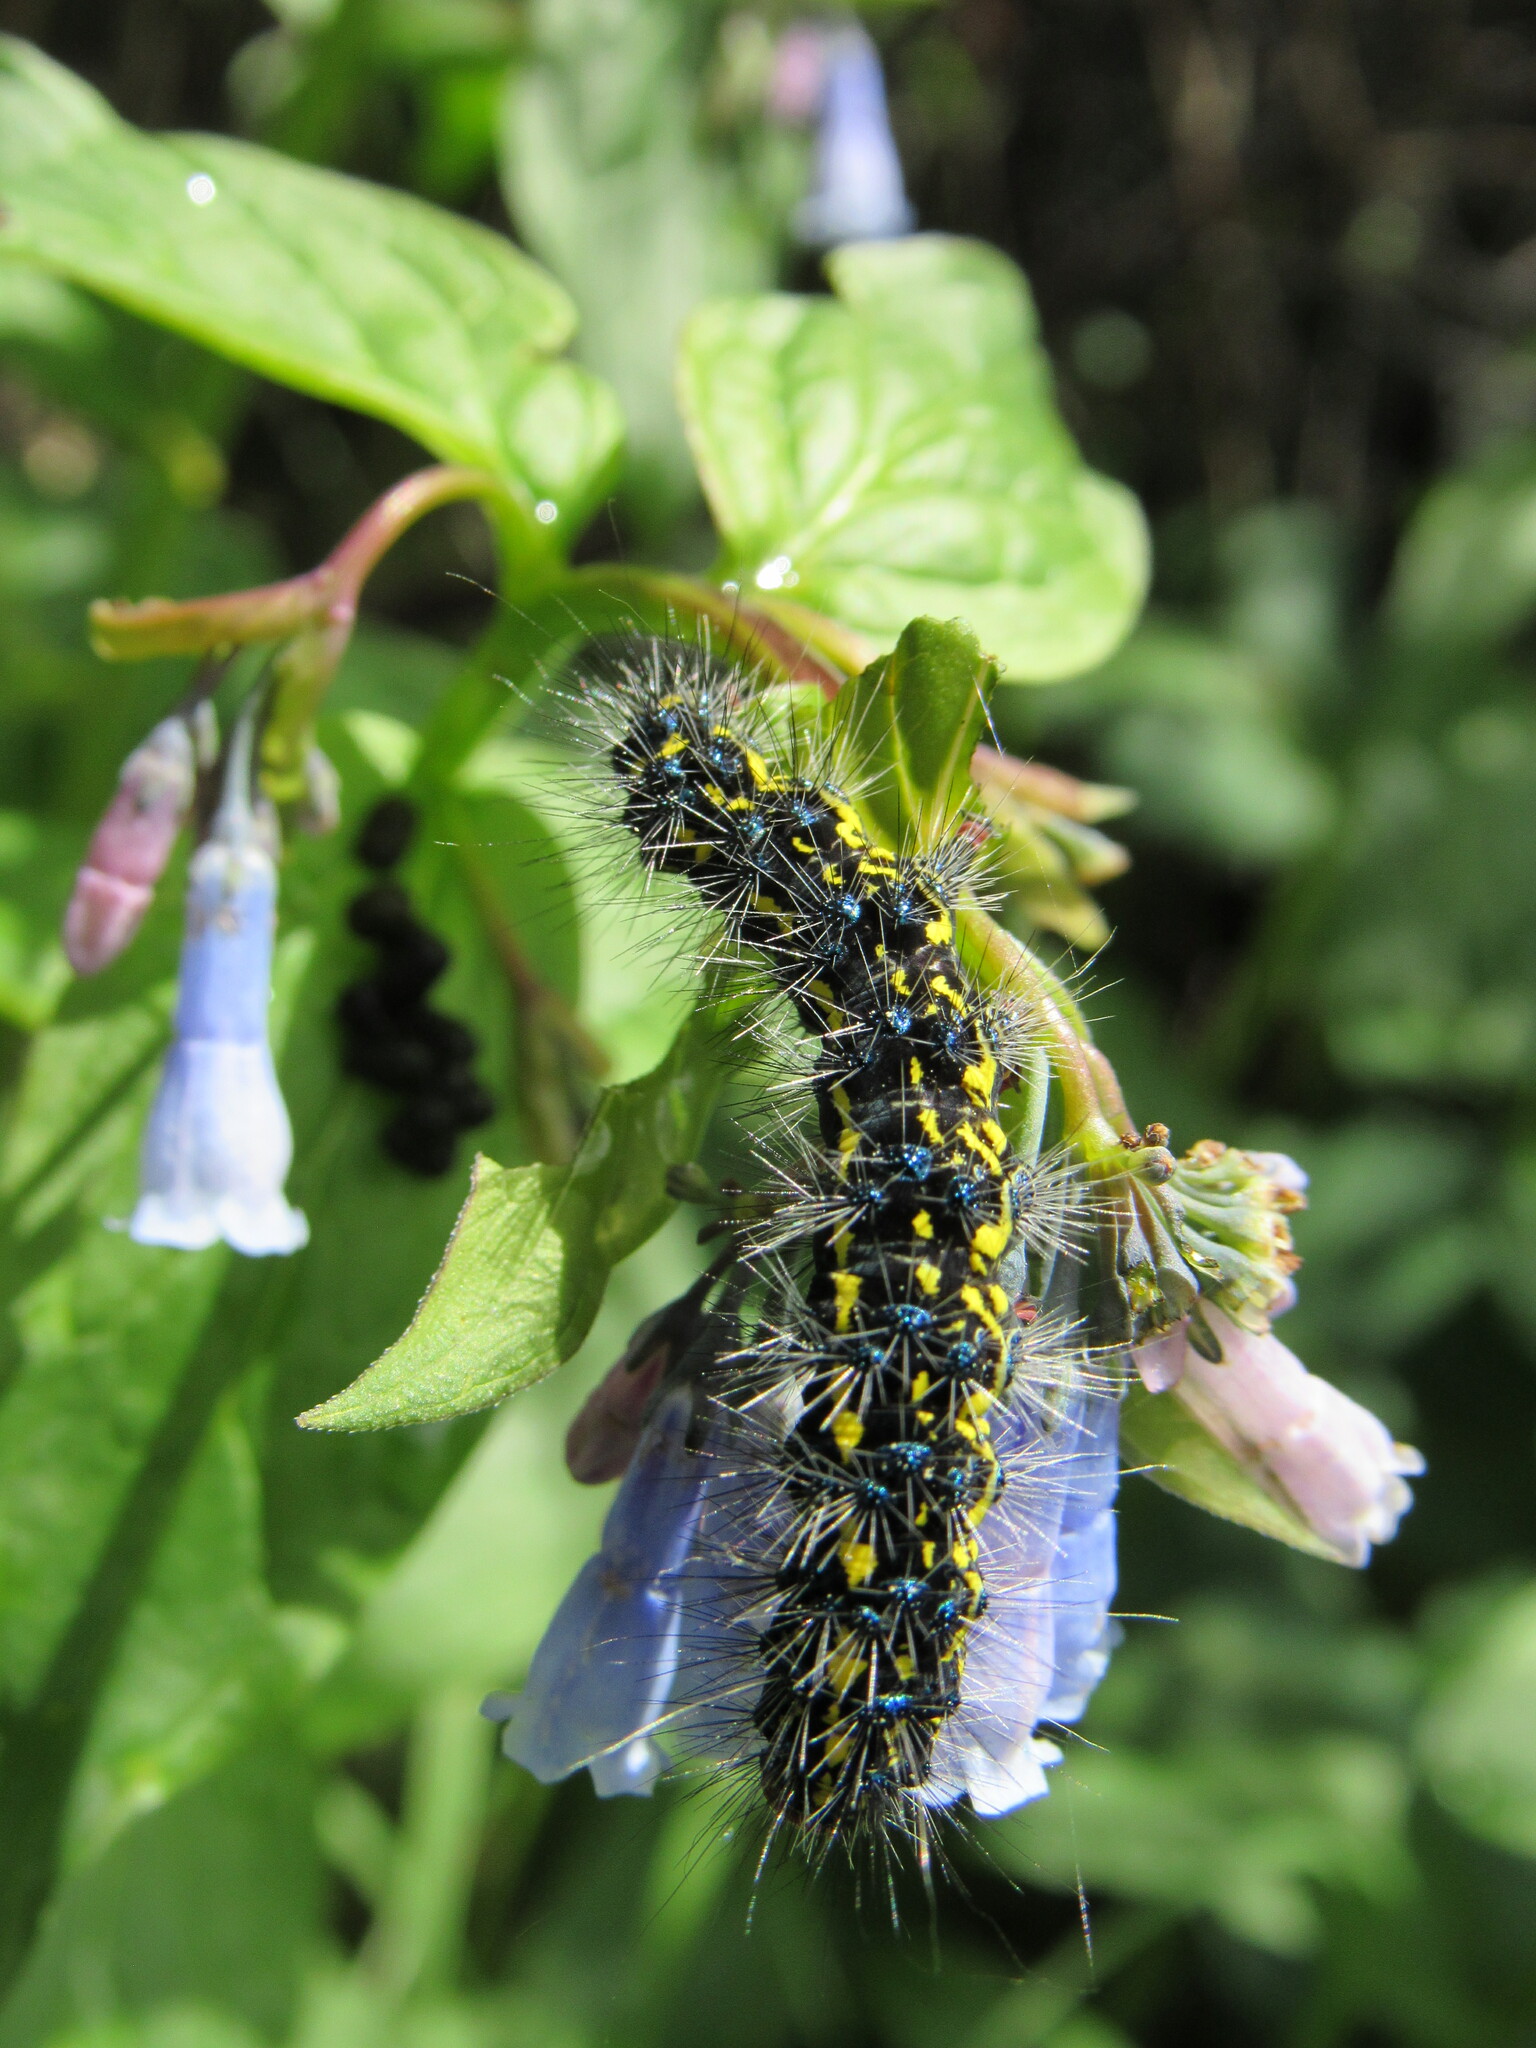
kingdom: Animalia
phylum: Arthropoda
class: Insecta
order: Lepidoptera
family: Erebidae
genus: Gnophaela
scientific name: Gnophaela vermiculata
